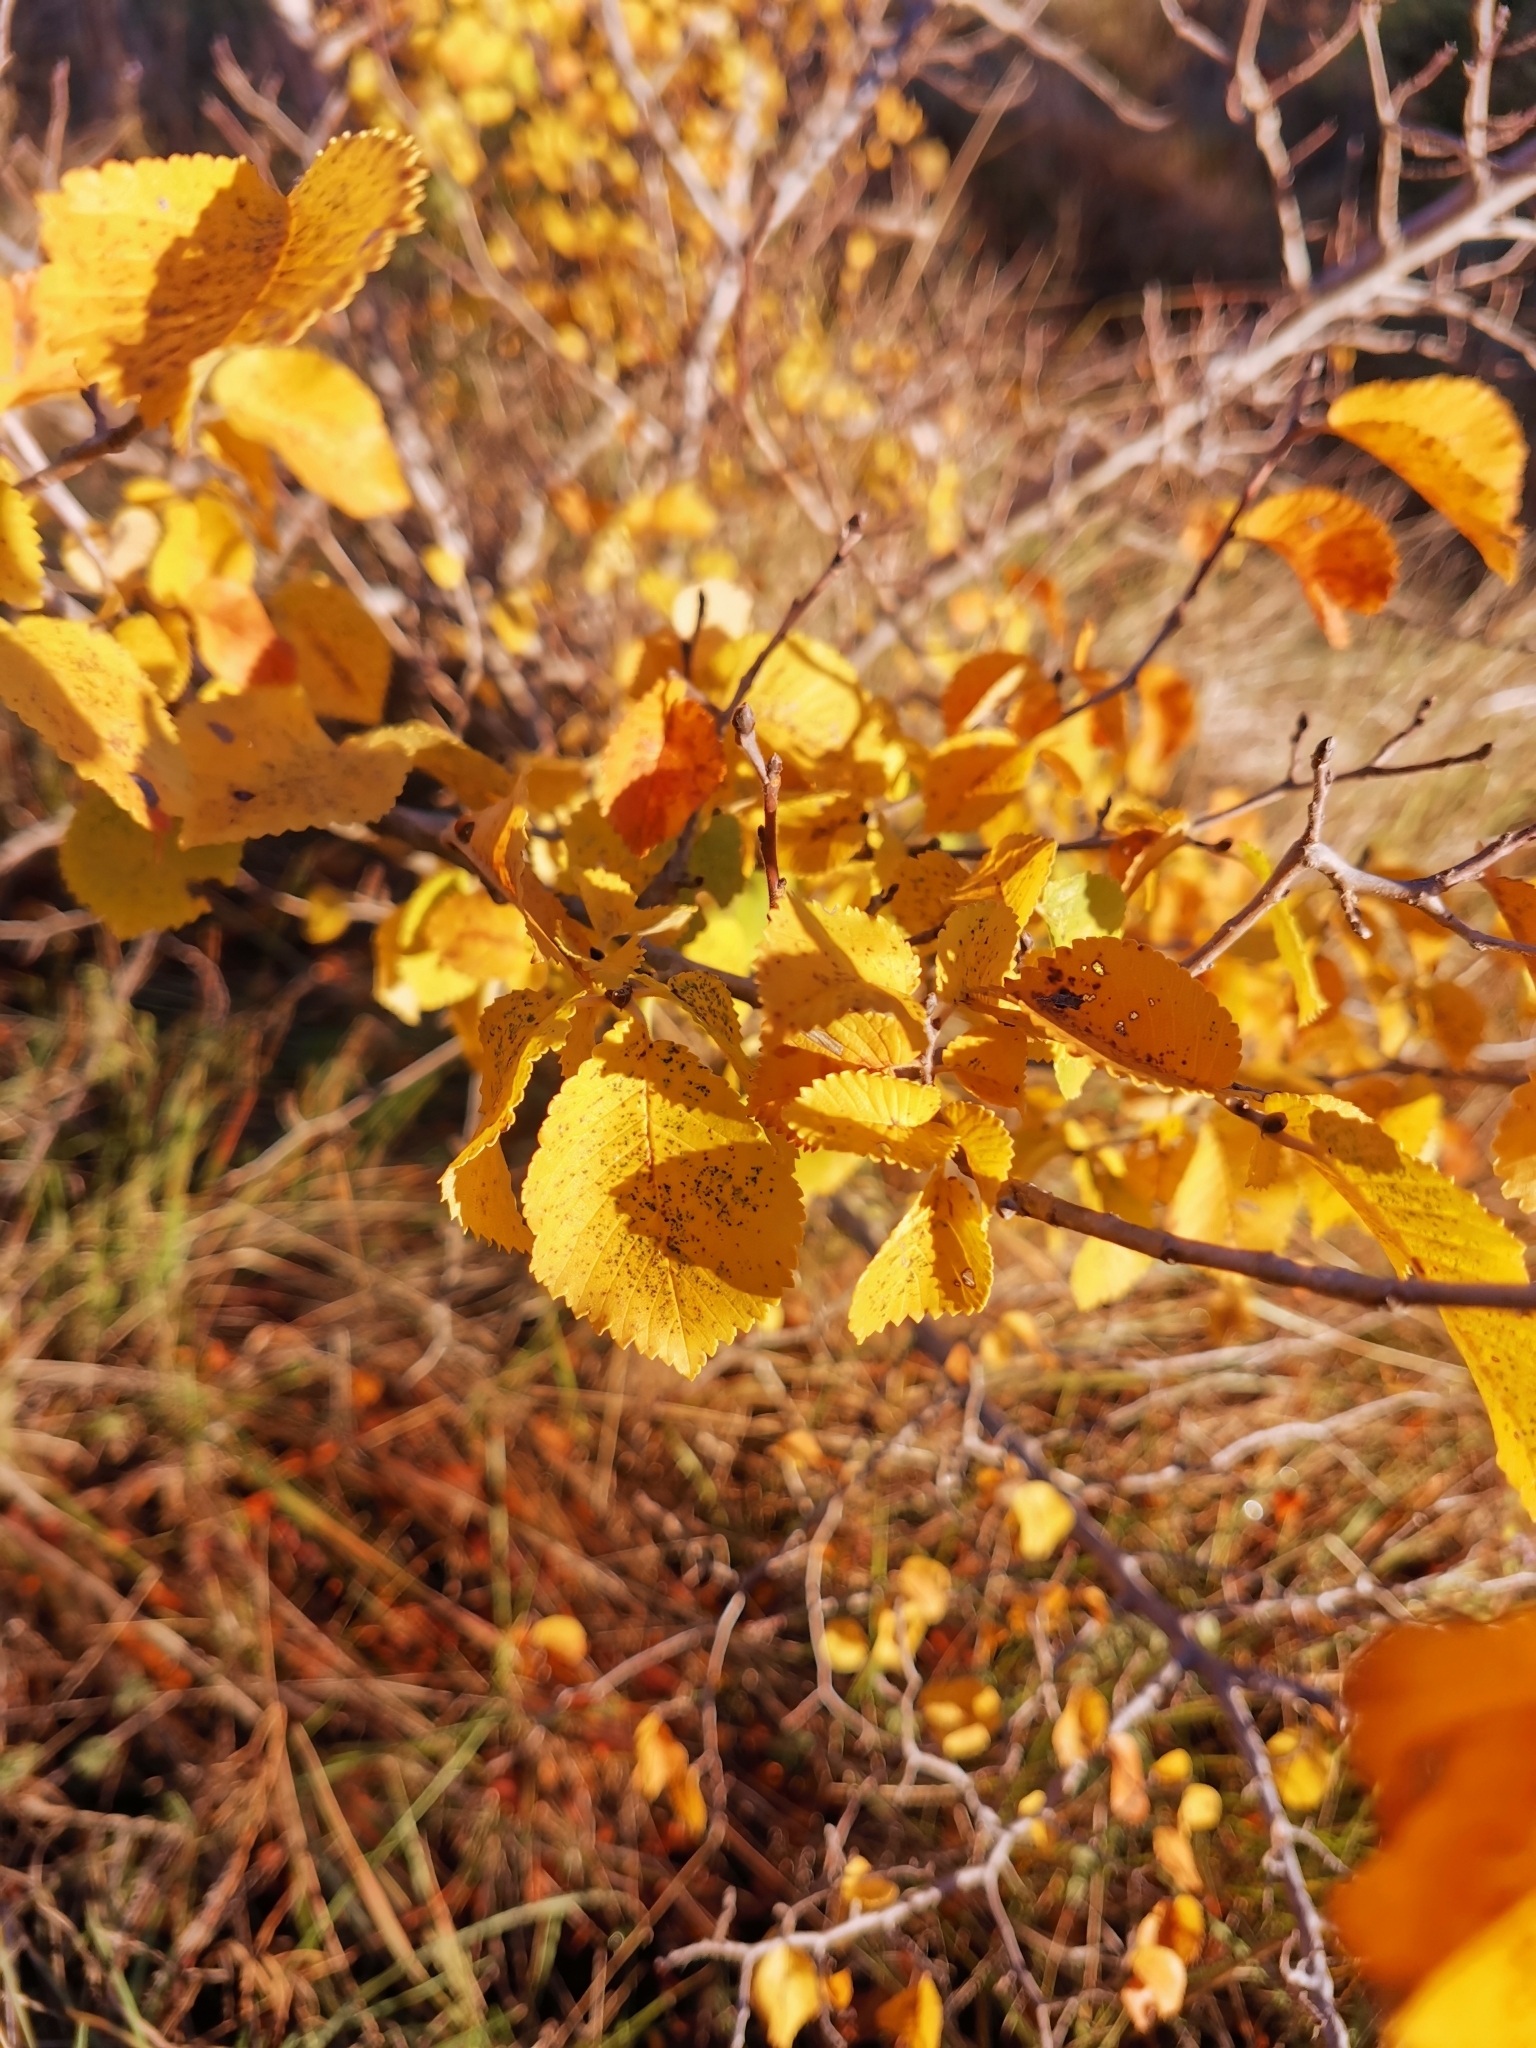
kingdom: Plantae
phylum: Tracheophyta
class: Magnoliopsida
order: Rosales
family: Ulmaceae
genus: Ulmus
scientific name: Ulmus minor
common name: Small-leaved elm
